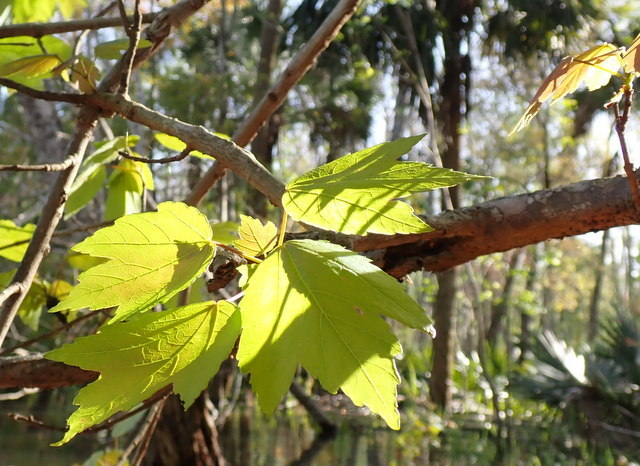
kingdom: Plantae
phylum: Tracheophyta
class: Magnoliopsida
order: Sapindales
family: Sapindaceae
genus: Acer
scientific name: Acer rubrum
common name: Red maple
